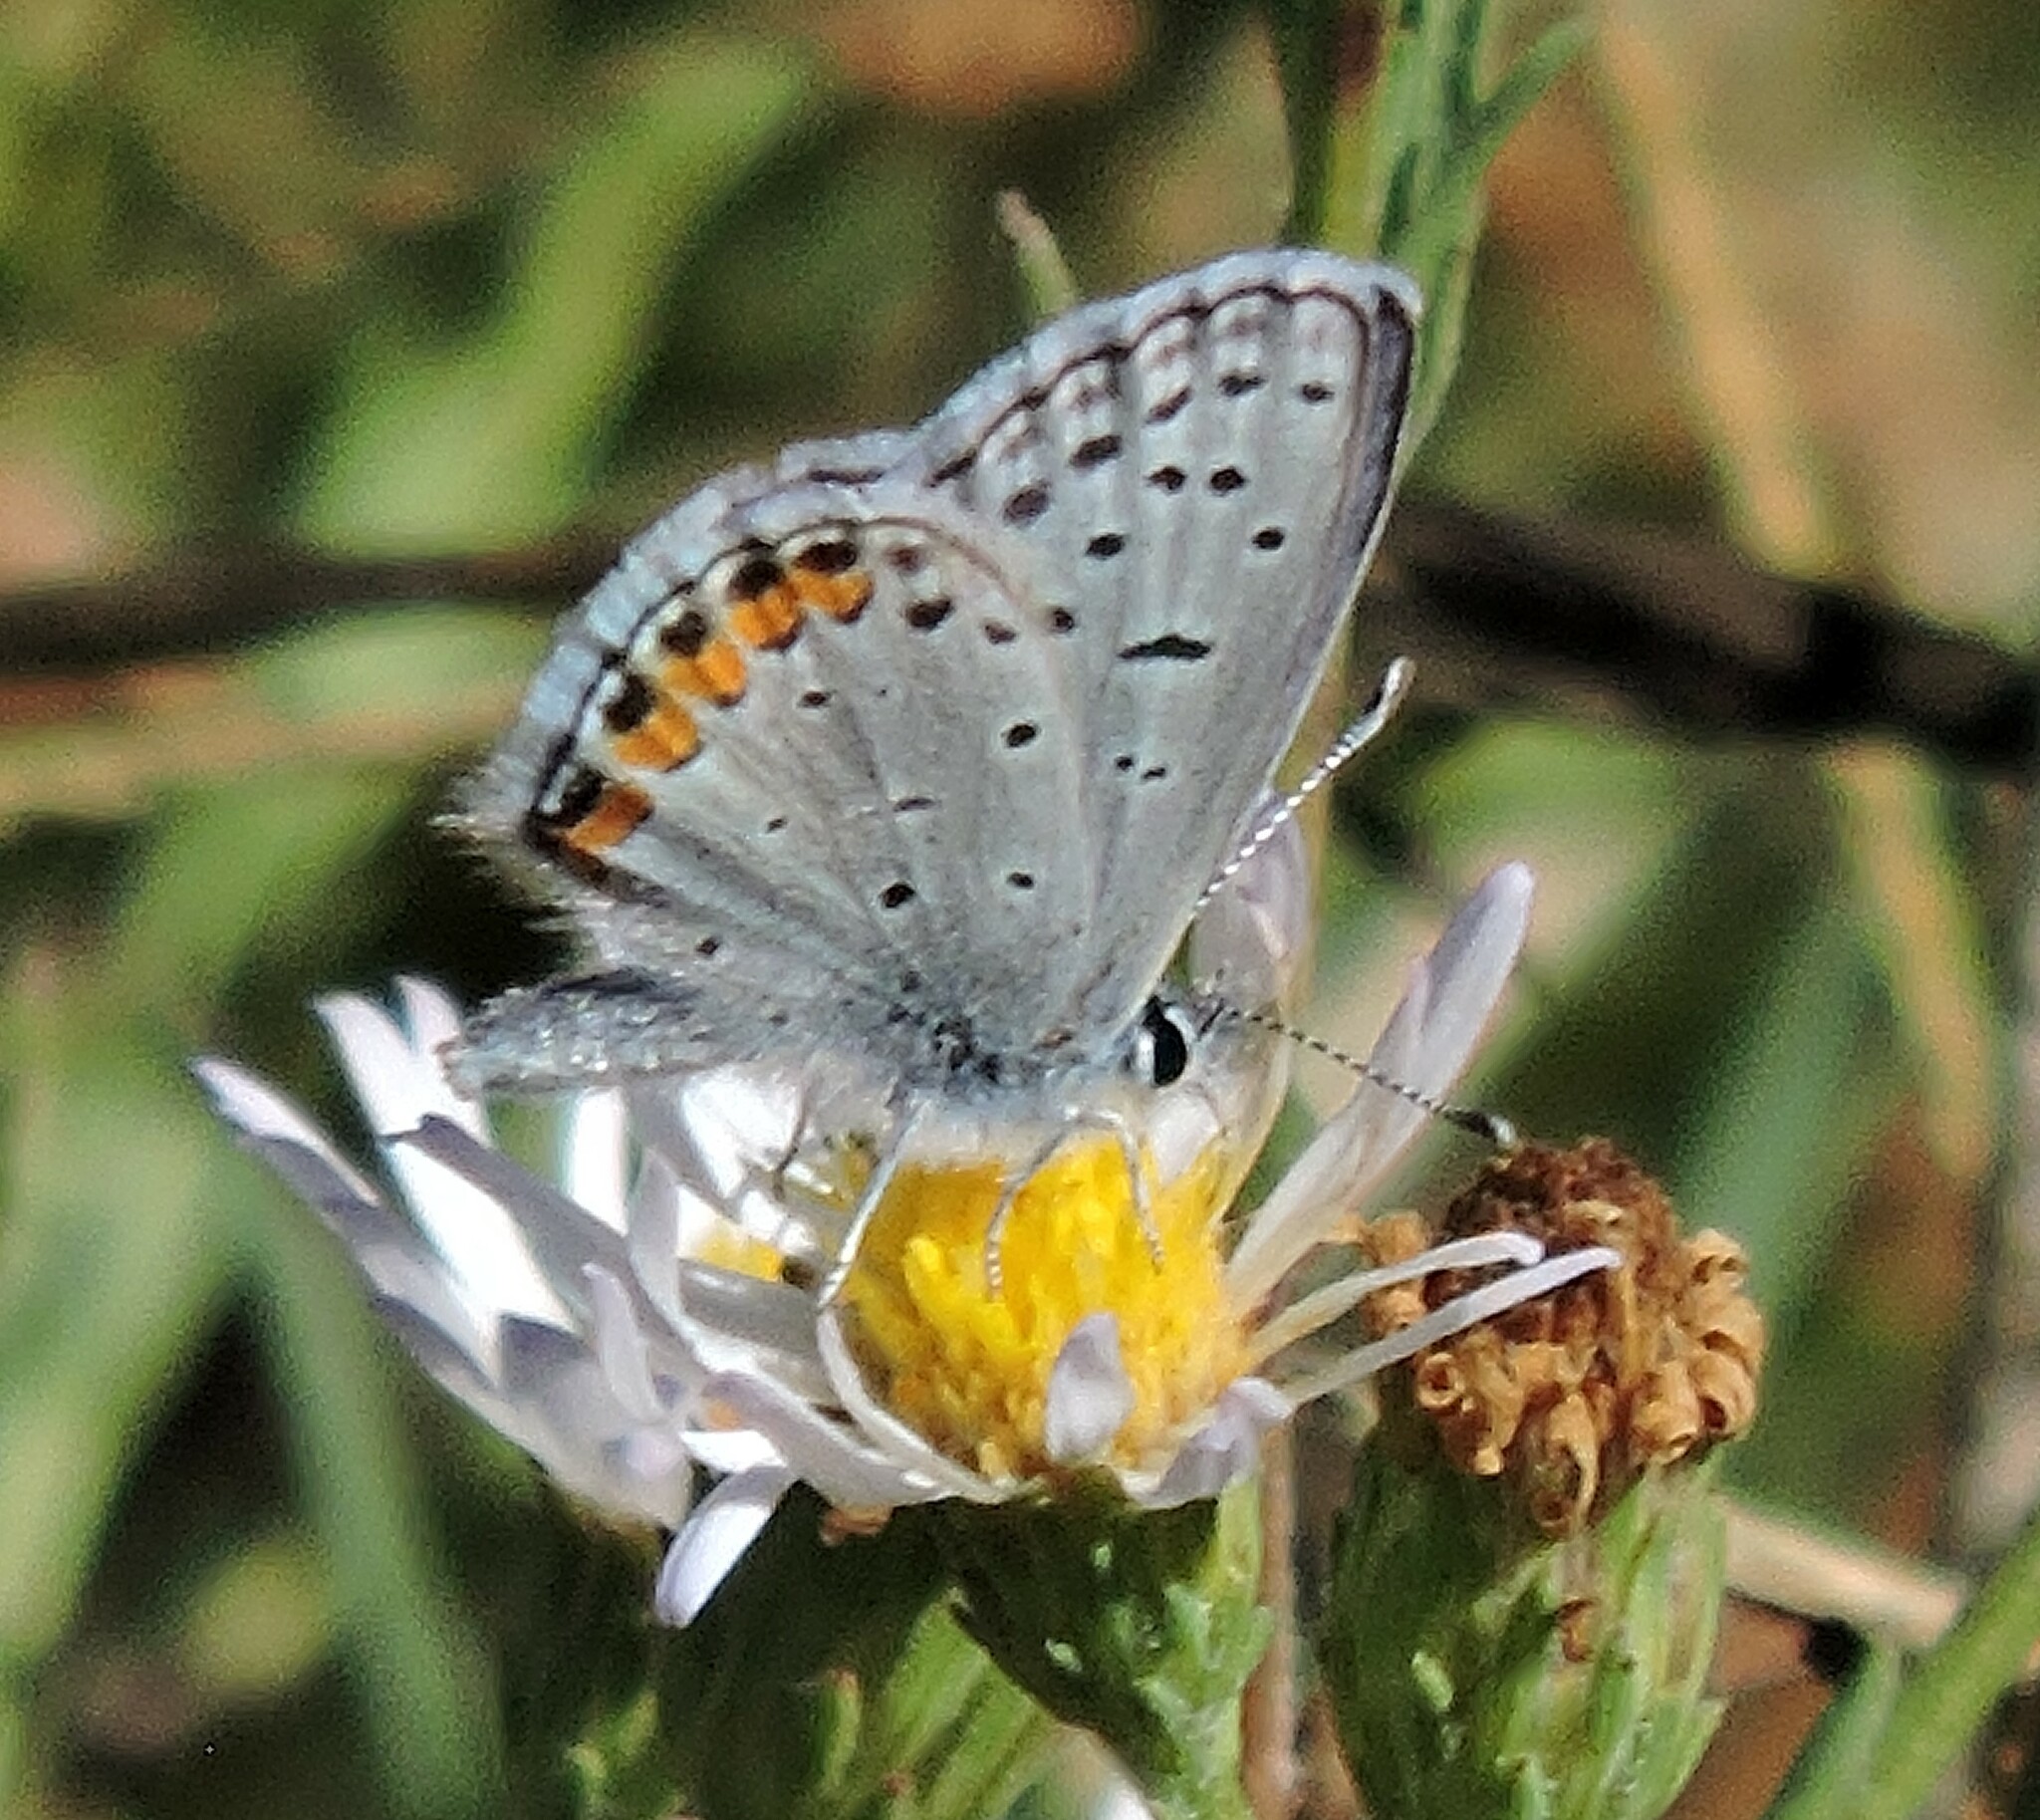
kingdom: Animalia
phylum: Arthropoda
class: Insecta
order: Lepidoptera
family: Lycaenidae
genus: Icaricia
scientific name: Icaricia acmon
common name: Acmon blue
